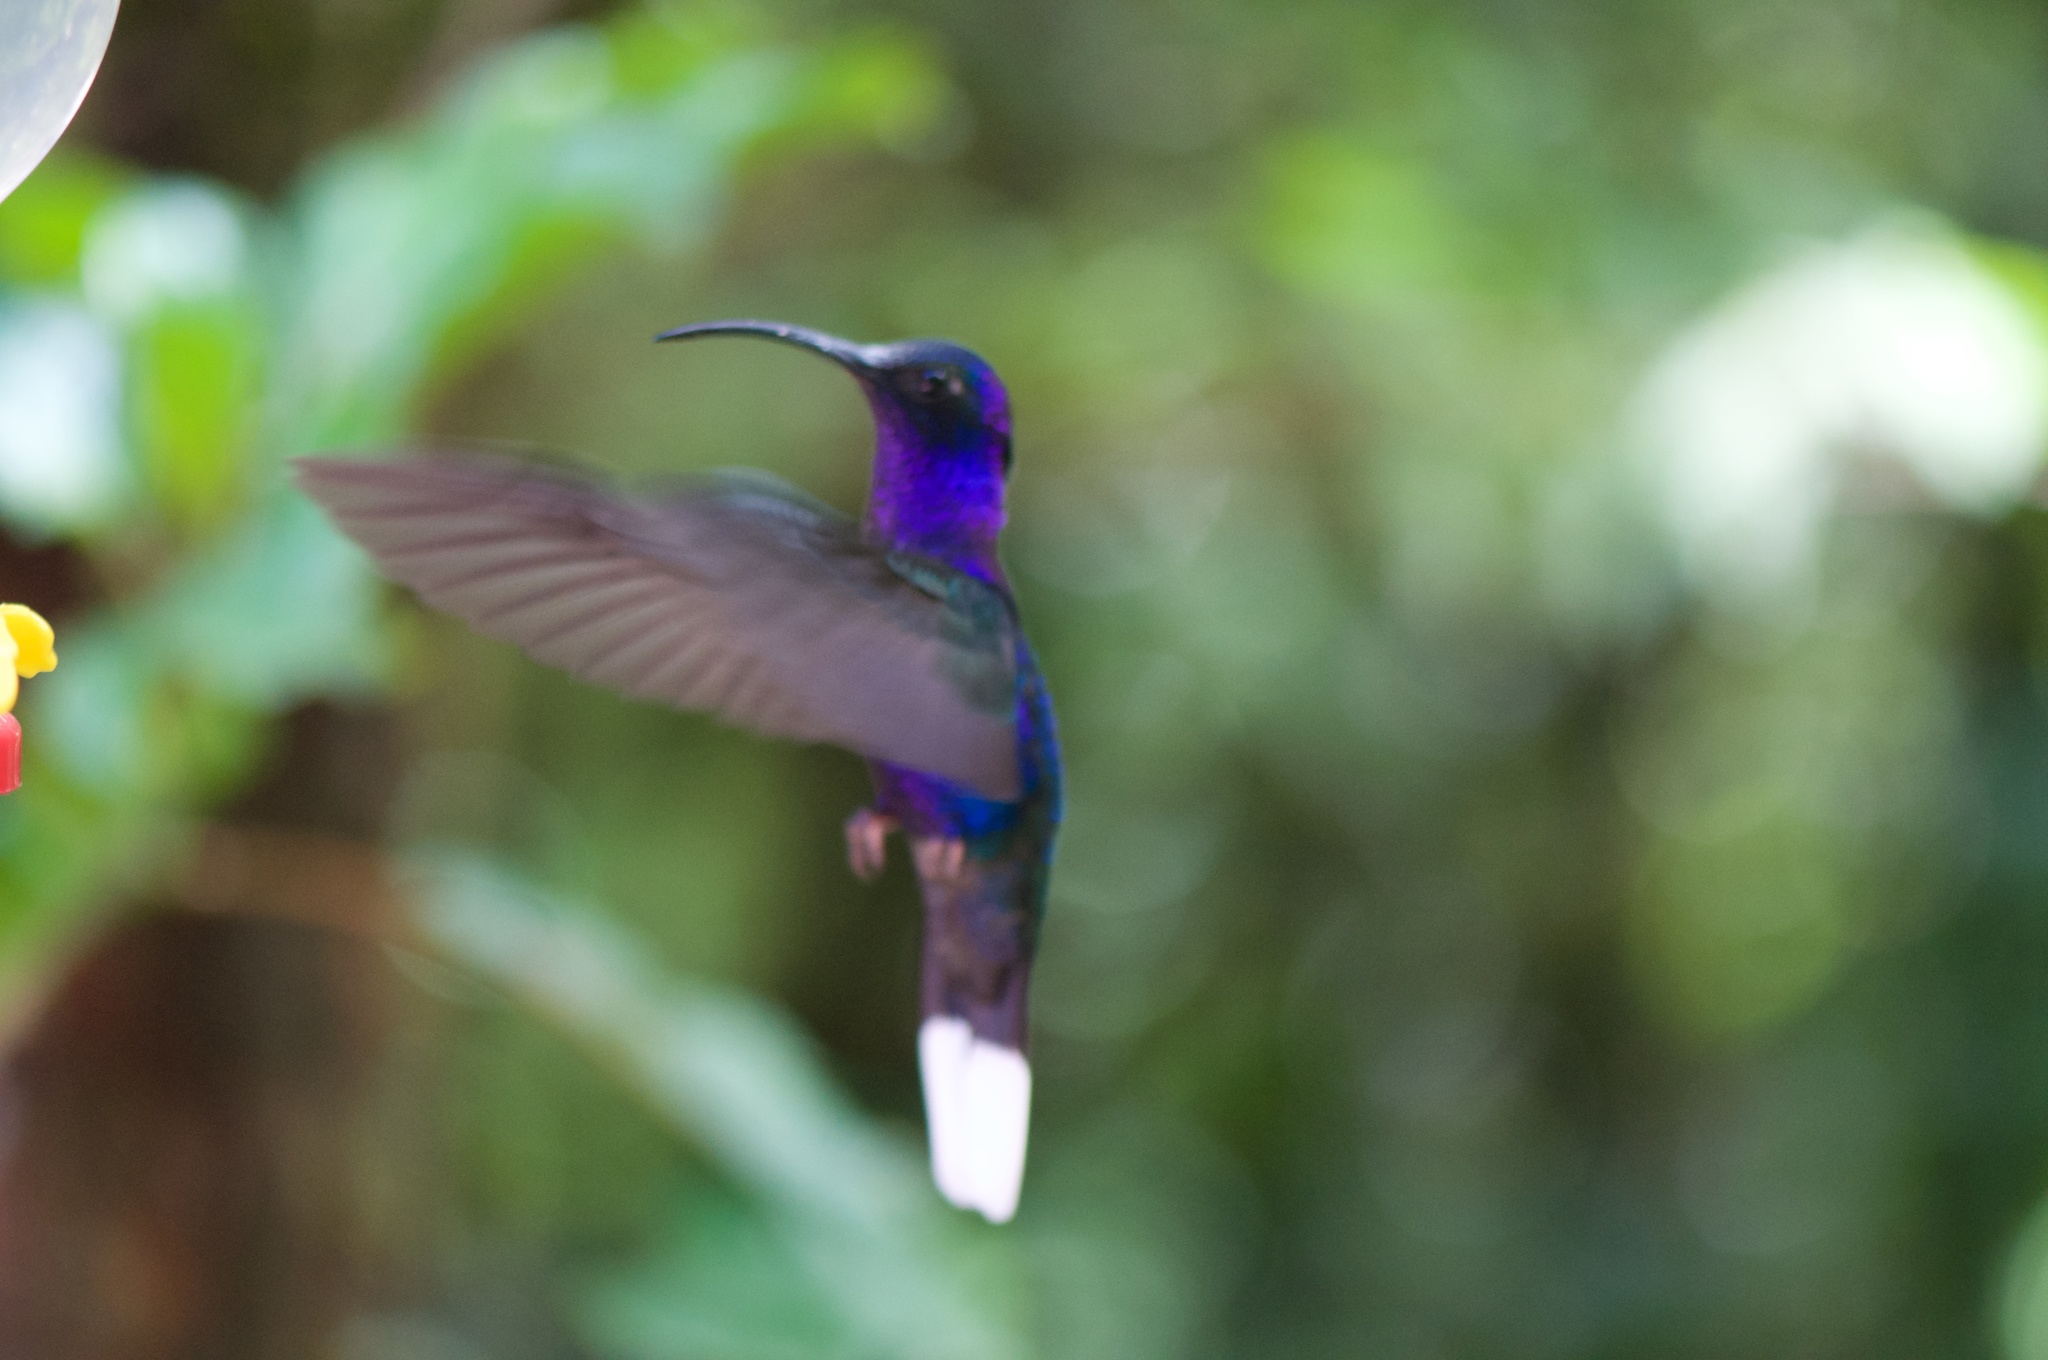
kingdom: Animalia
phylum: Chordata
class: Aves
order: Apodiformes
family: Trochilidae
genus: Campylopterus
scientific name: Campylopterus hemileucurus
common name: Violet sabrewing
